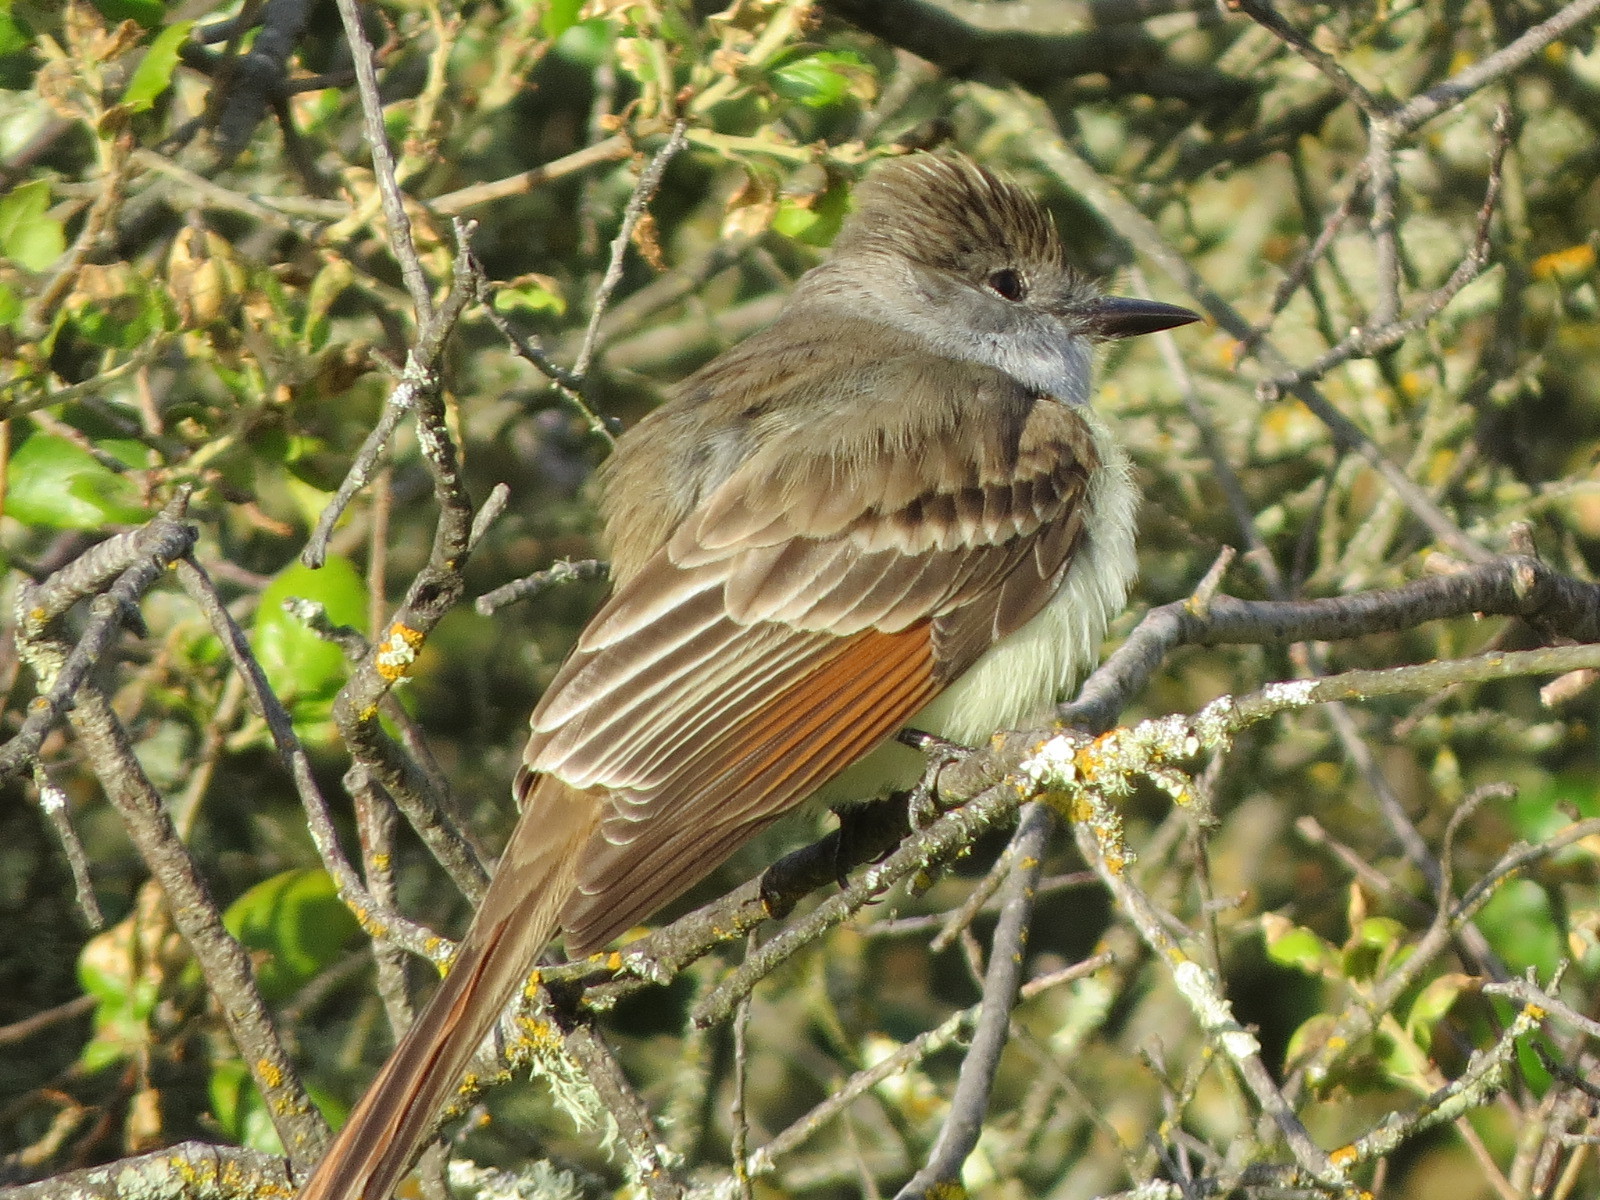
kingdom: Animalia
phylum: Chordata
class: Aves
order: Passeriformes
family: Tyrannidae
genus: Myiarchus
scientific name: Myiarchus cinerascens
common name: Ash-throated flycatcher
